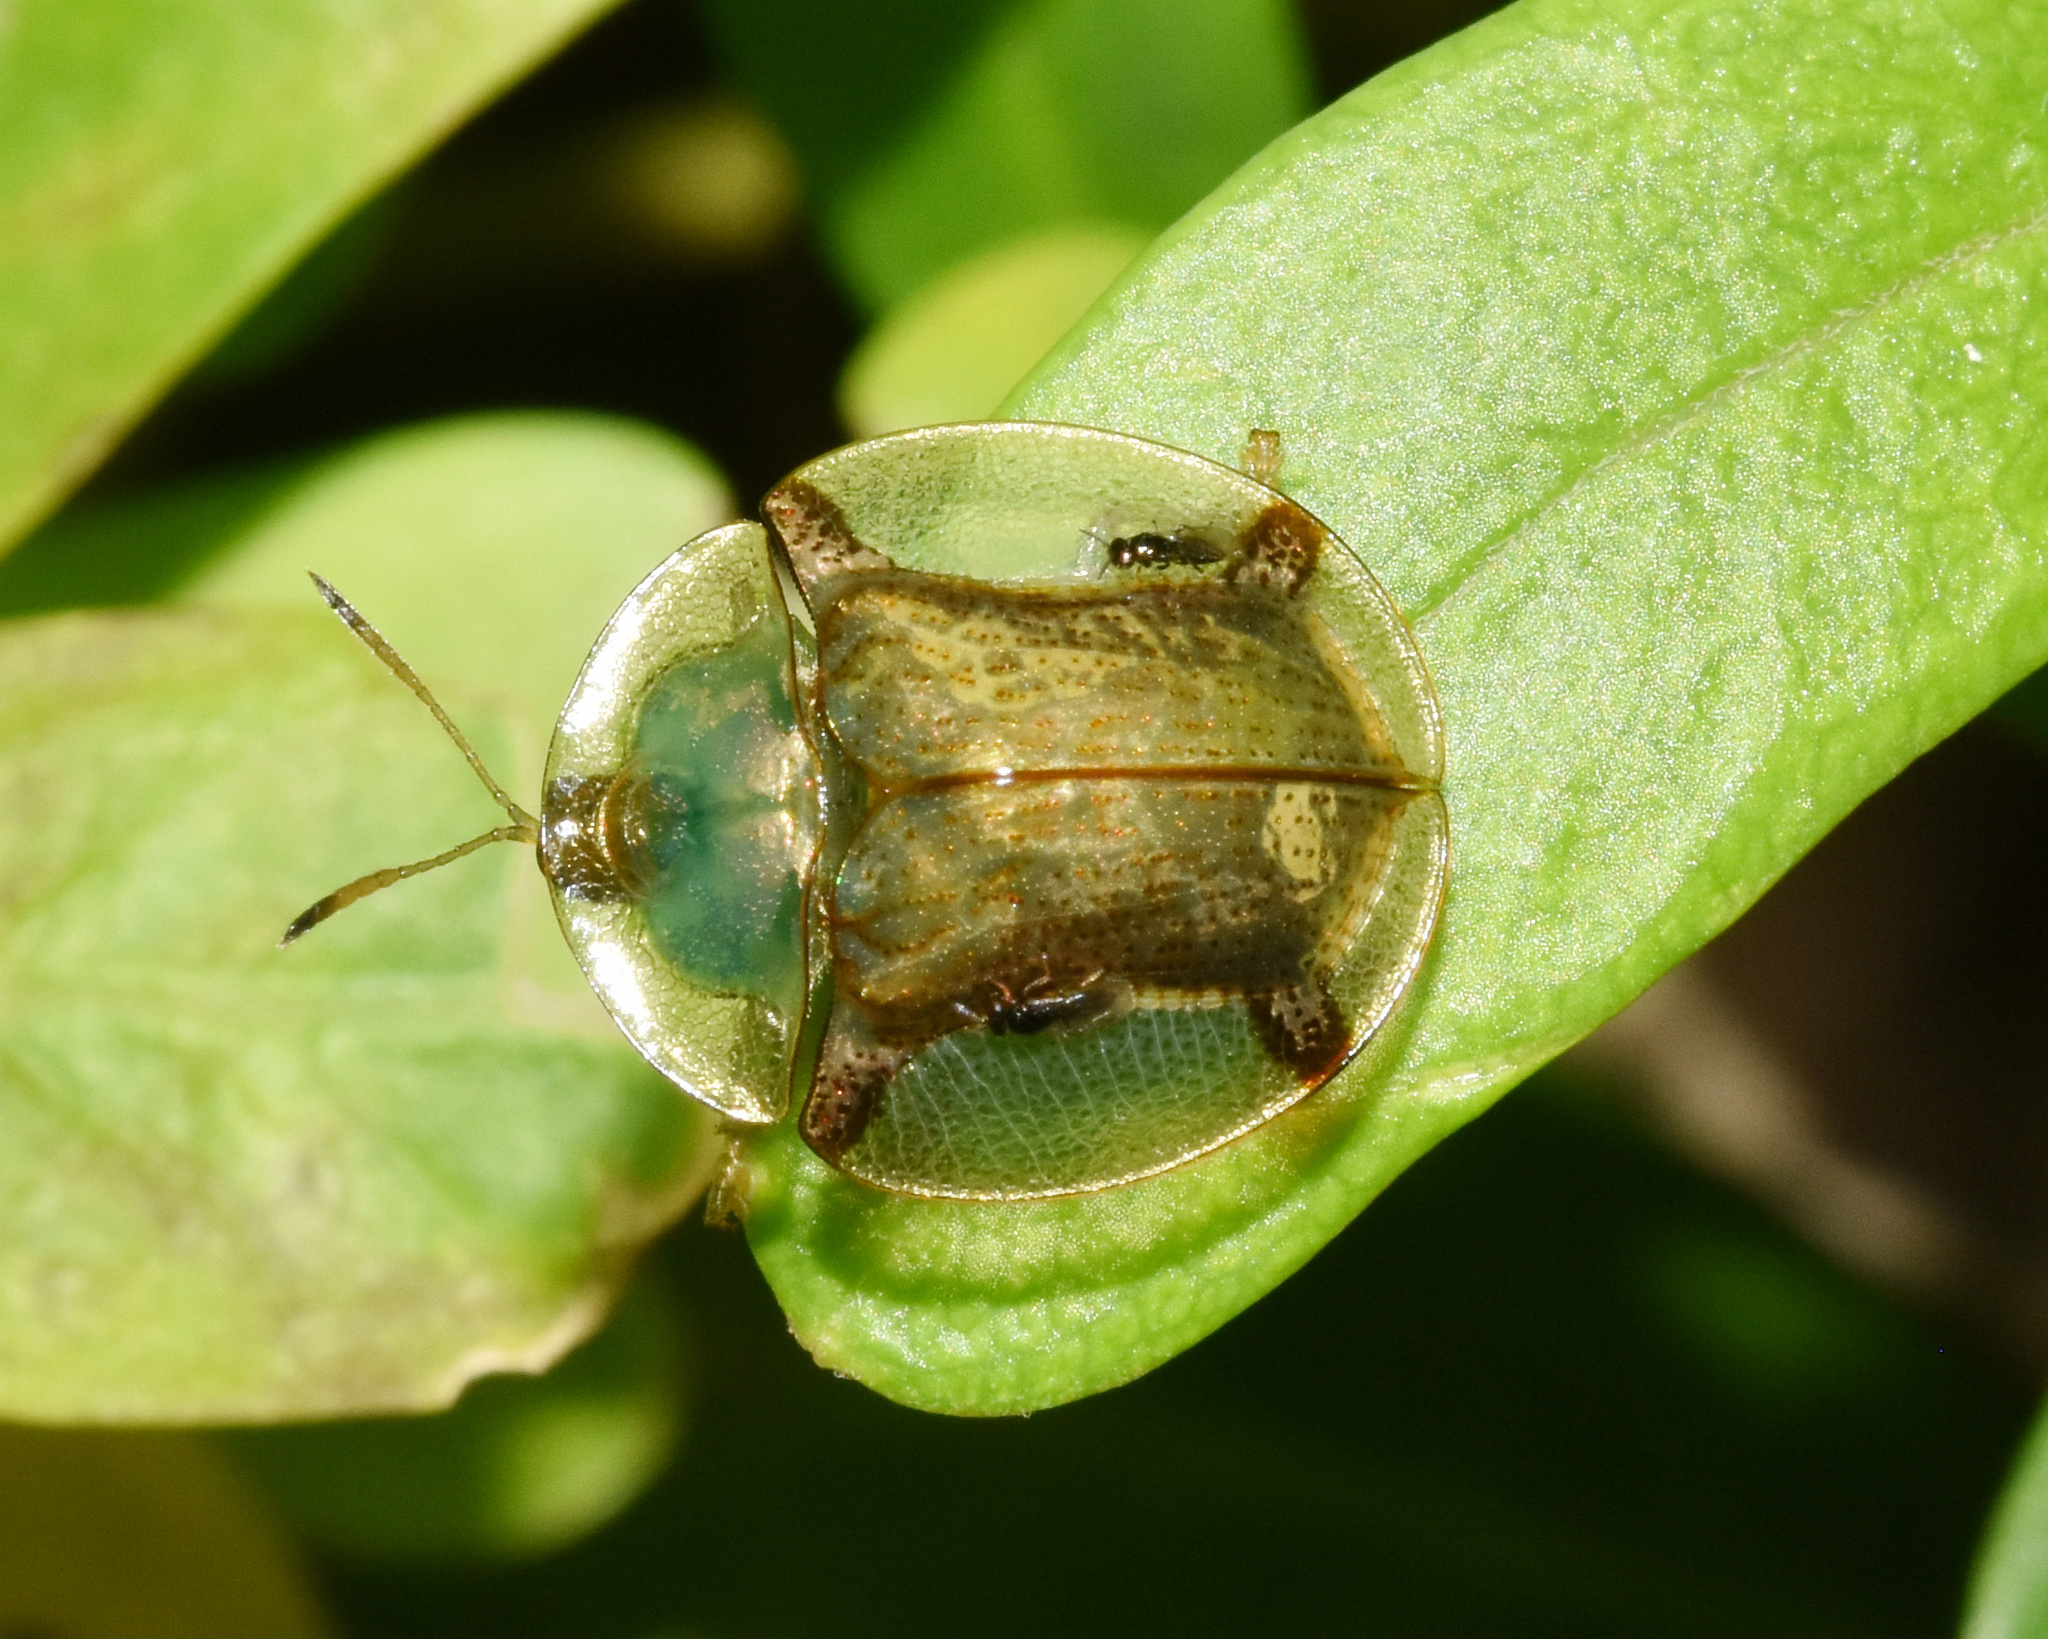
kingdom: Animalia
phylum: Arthropoda
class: Insecta
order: Coleoptera
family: Chrysomelidae
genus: Aspidimorpha
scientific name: Aspidimorpha quadriremis
